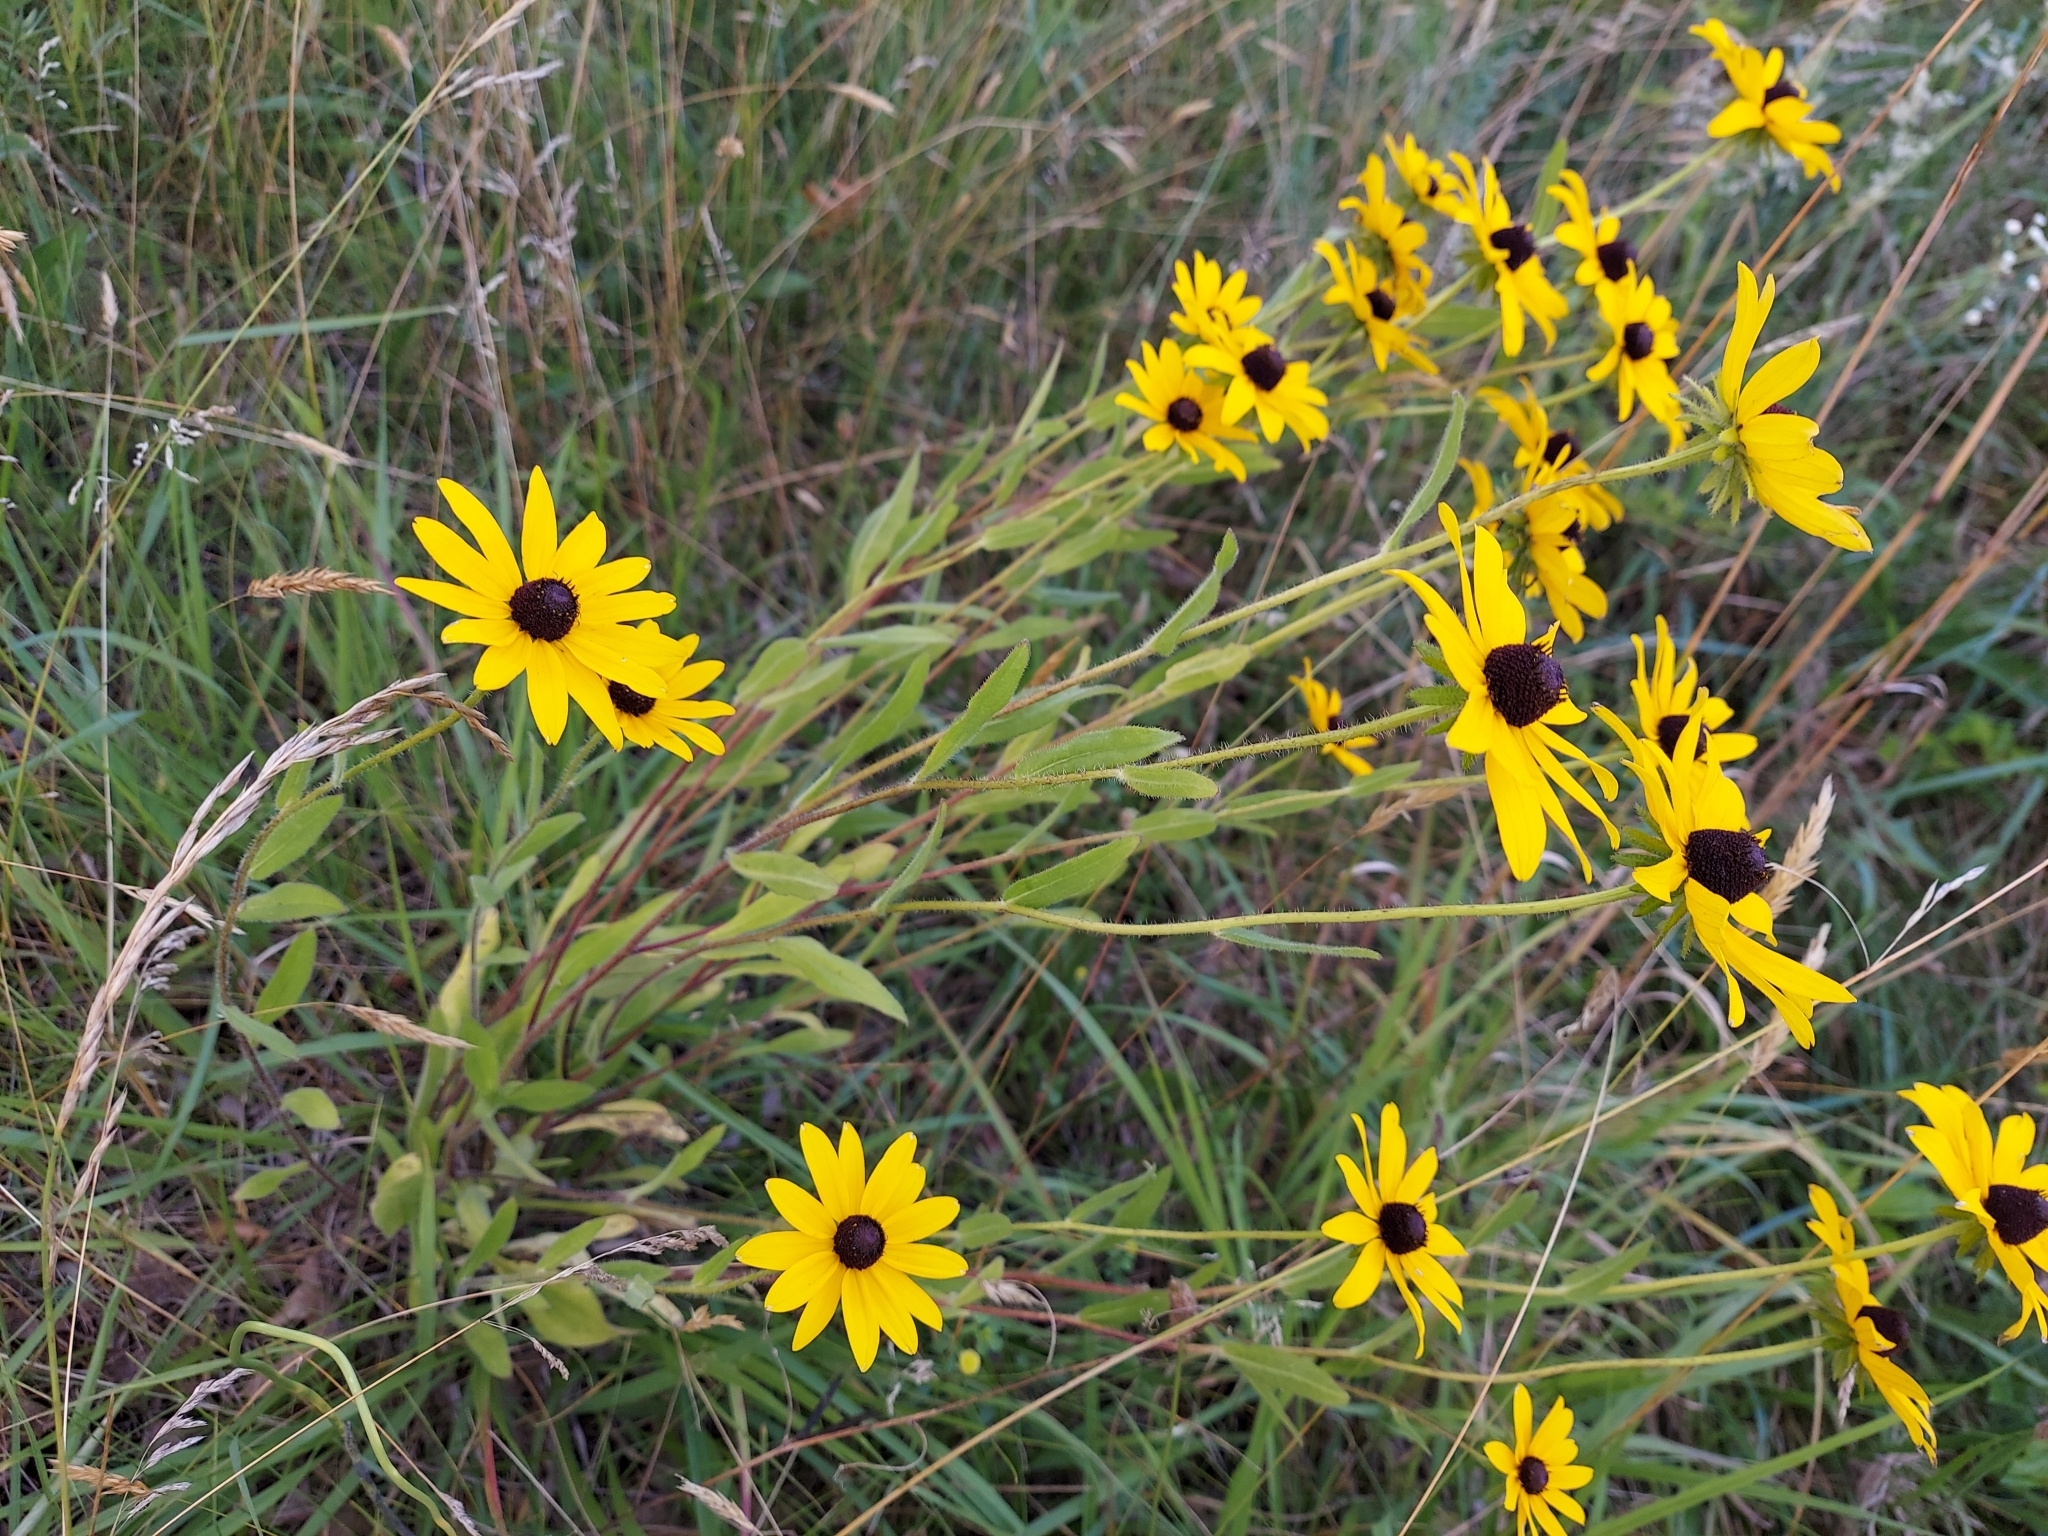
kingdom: Plantae
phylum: Tracheophyta
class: Magnoliopsida
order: Asterales
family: Asteraceae
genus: Rudbeckia
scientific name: Rudbeckia hirta
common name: Black-eyed-susan
